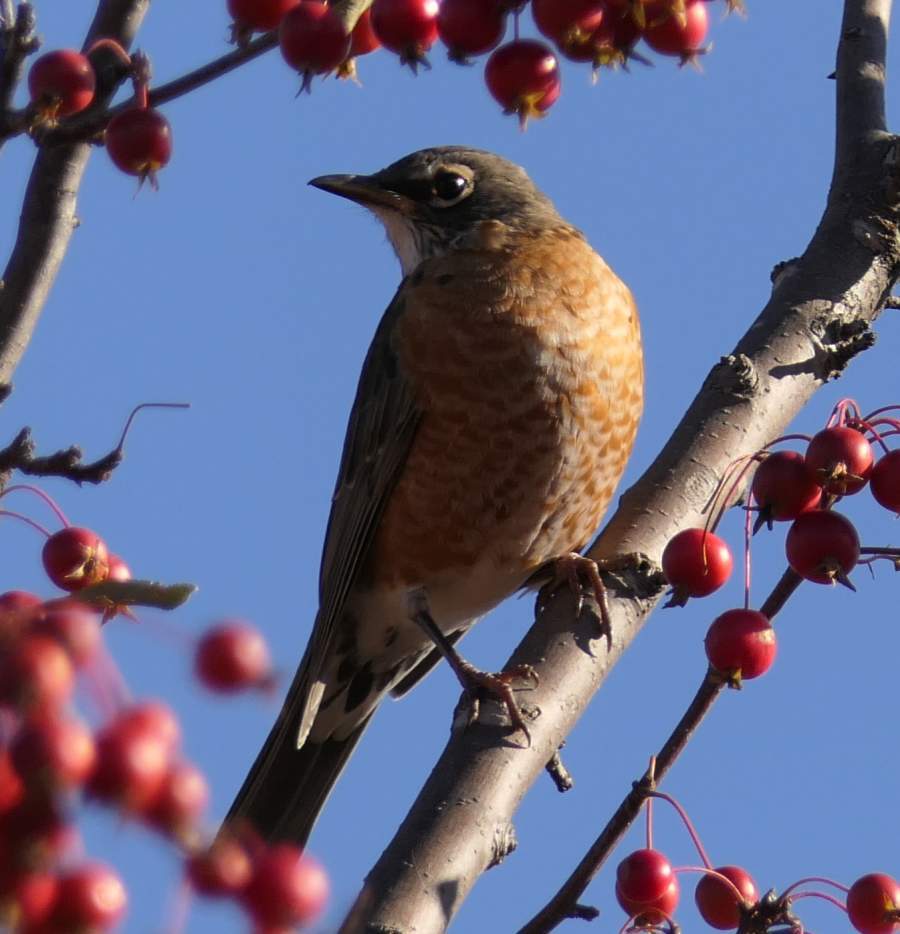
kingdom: Animalia
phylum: Chordata
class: Aves
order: Passeriformes
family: Turdidae
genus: Turdus
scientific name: Turdus migratorius
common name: American robin
